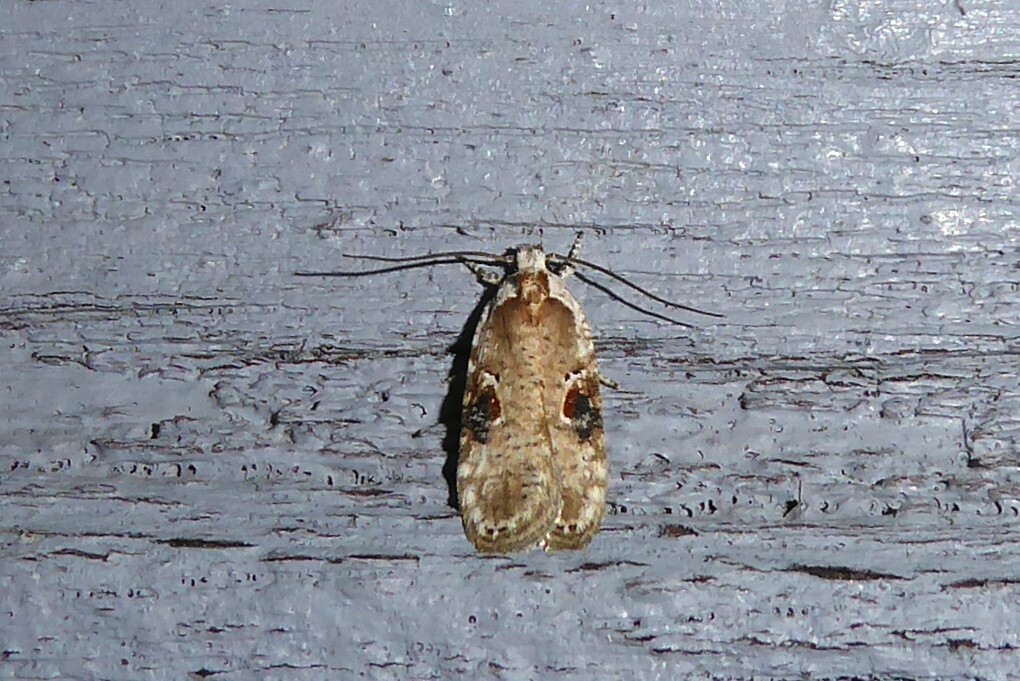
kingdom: Animalia
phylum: Arthropoda
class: Insecta
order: Lepidoptera
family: Depressariidae
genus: Agonopterix
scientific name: Agonopterix alstroemeriana
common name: Moth
